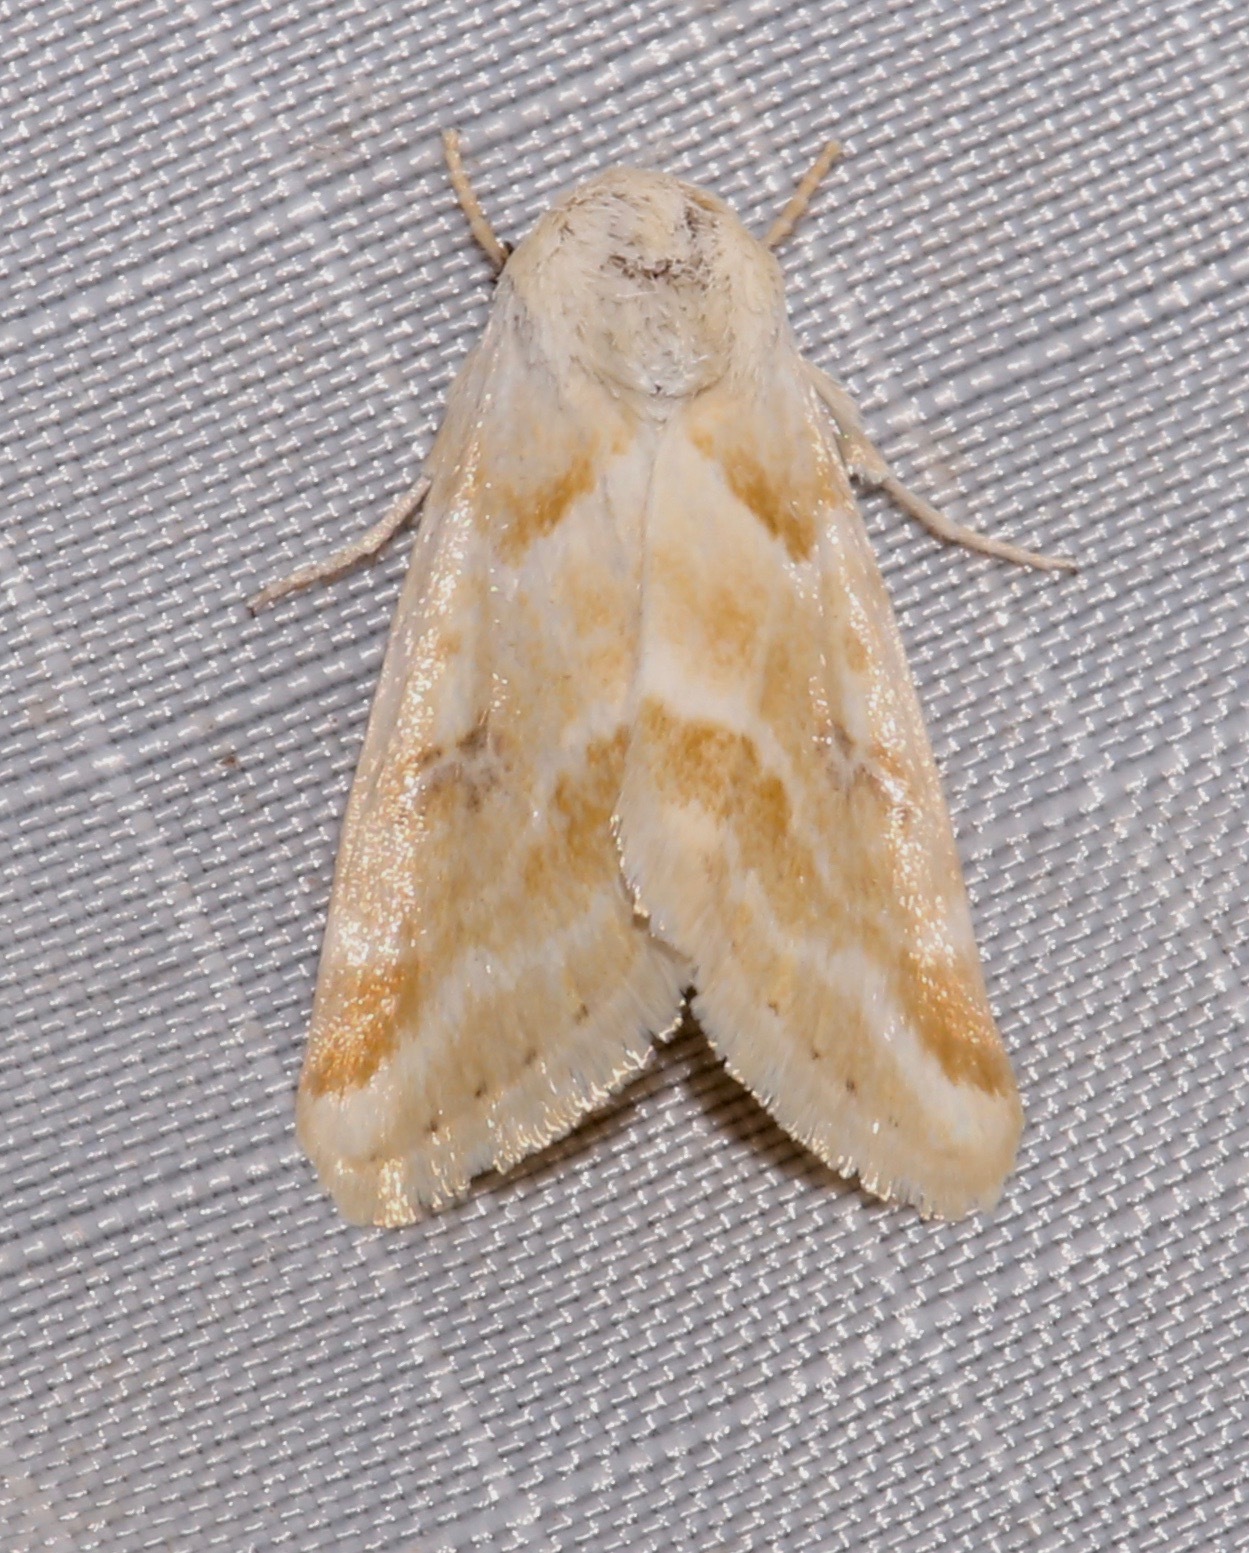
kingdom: Animalia
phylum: Arthropoda
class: Insecta
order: Lepidoptera
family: Noctuidae
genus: Schinia
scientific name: Schinia walsinghami
